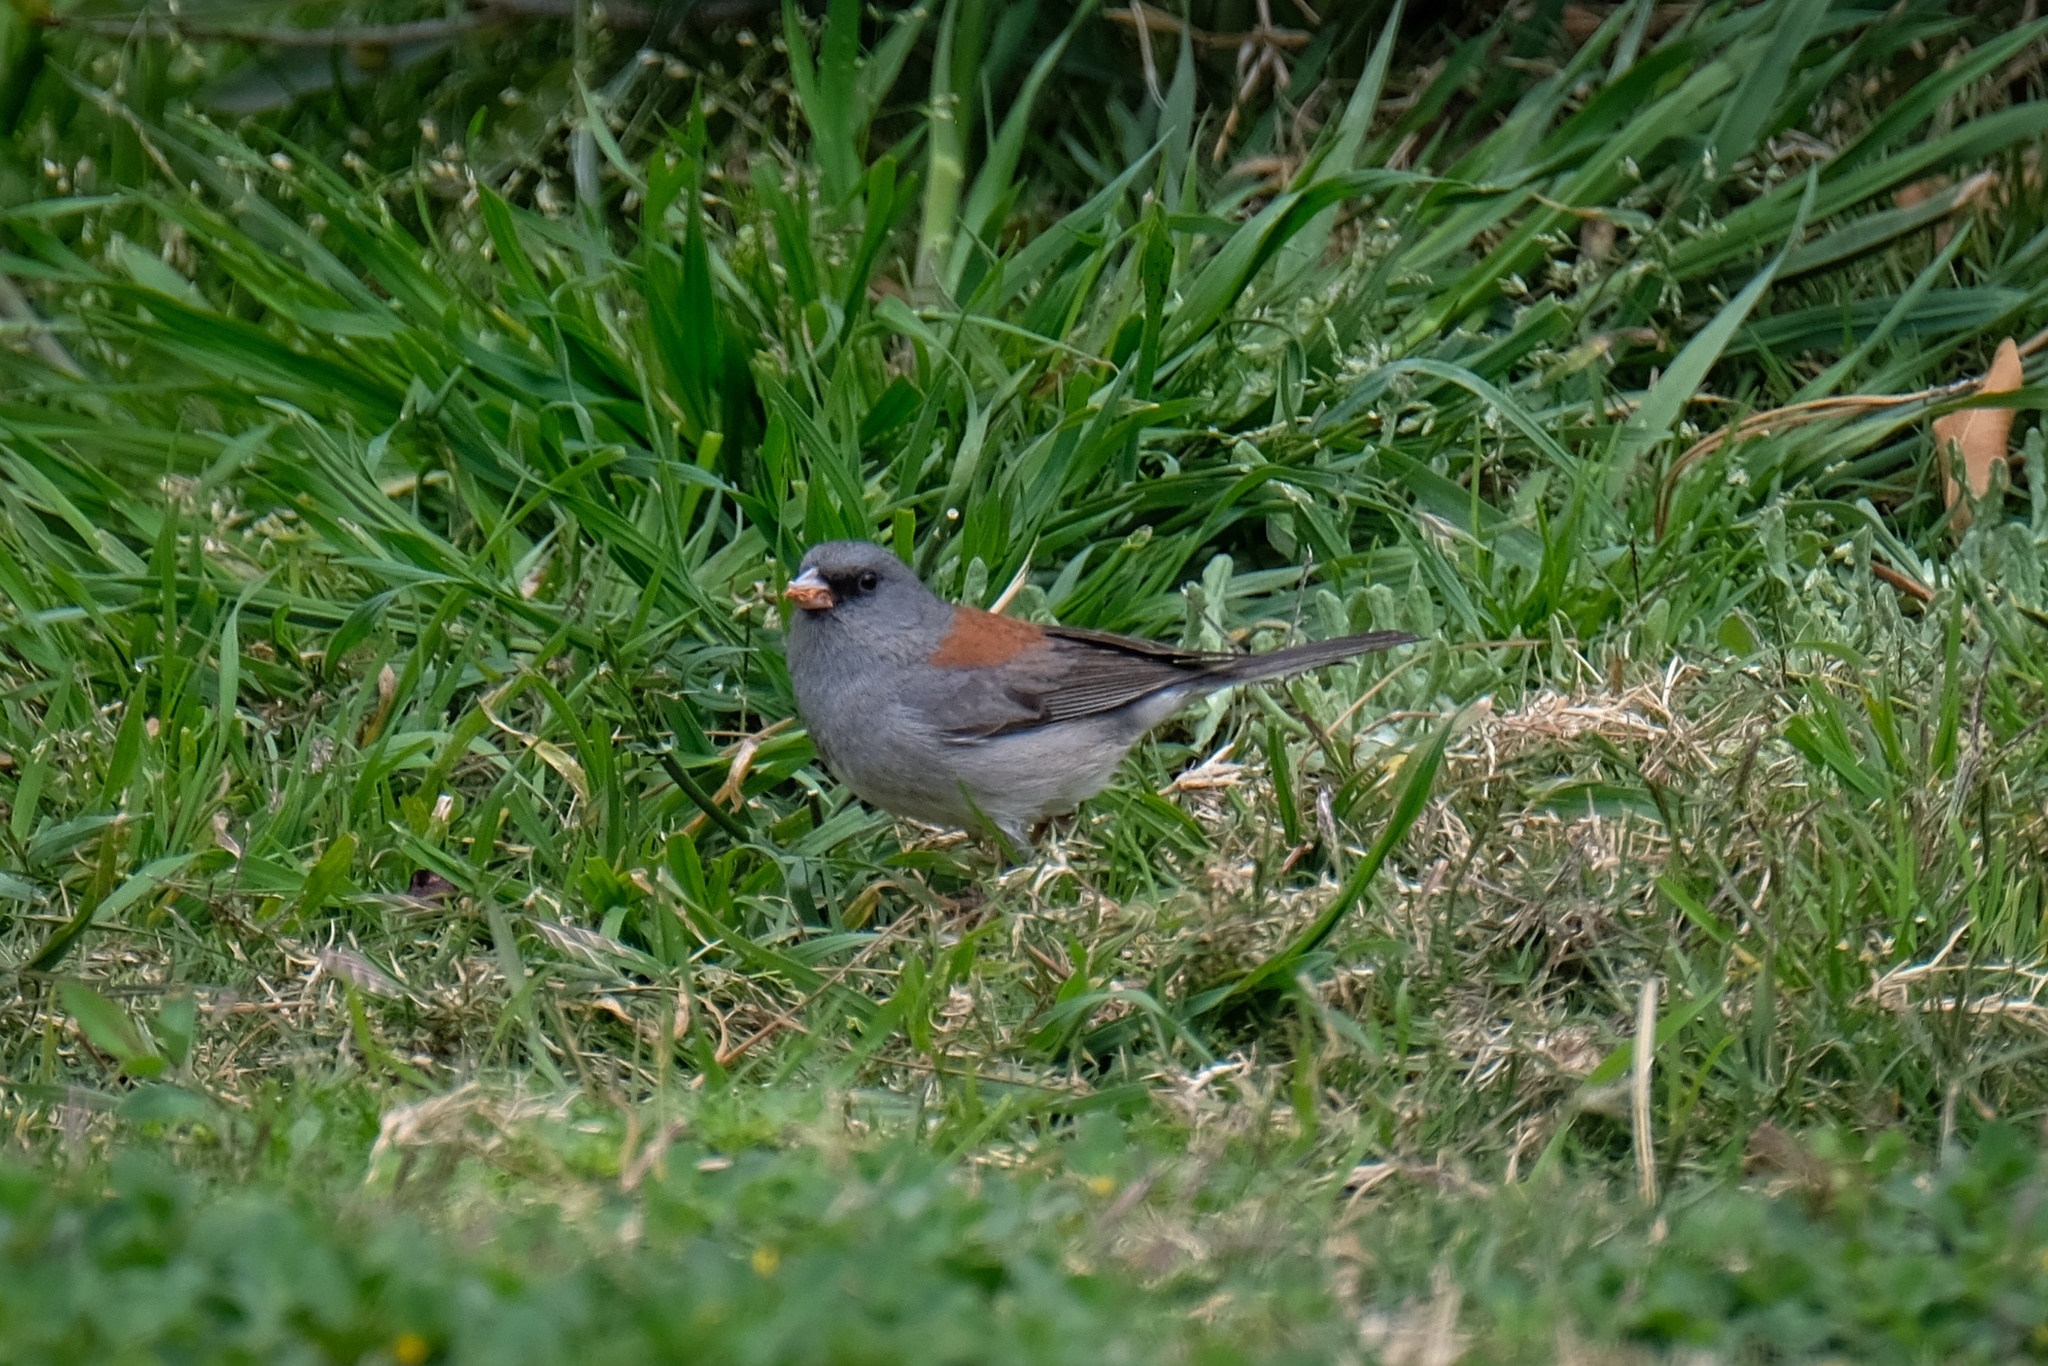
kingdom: Animalia
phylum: Chordata
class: Aves
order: Passeriformes
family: Passerellidae
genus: Junco
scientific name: Junco hyemalis
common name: Dark-eyed junco
